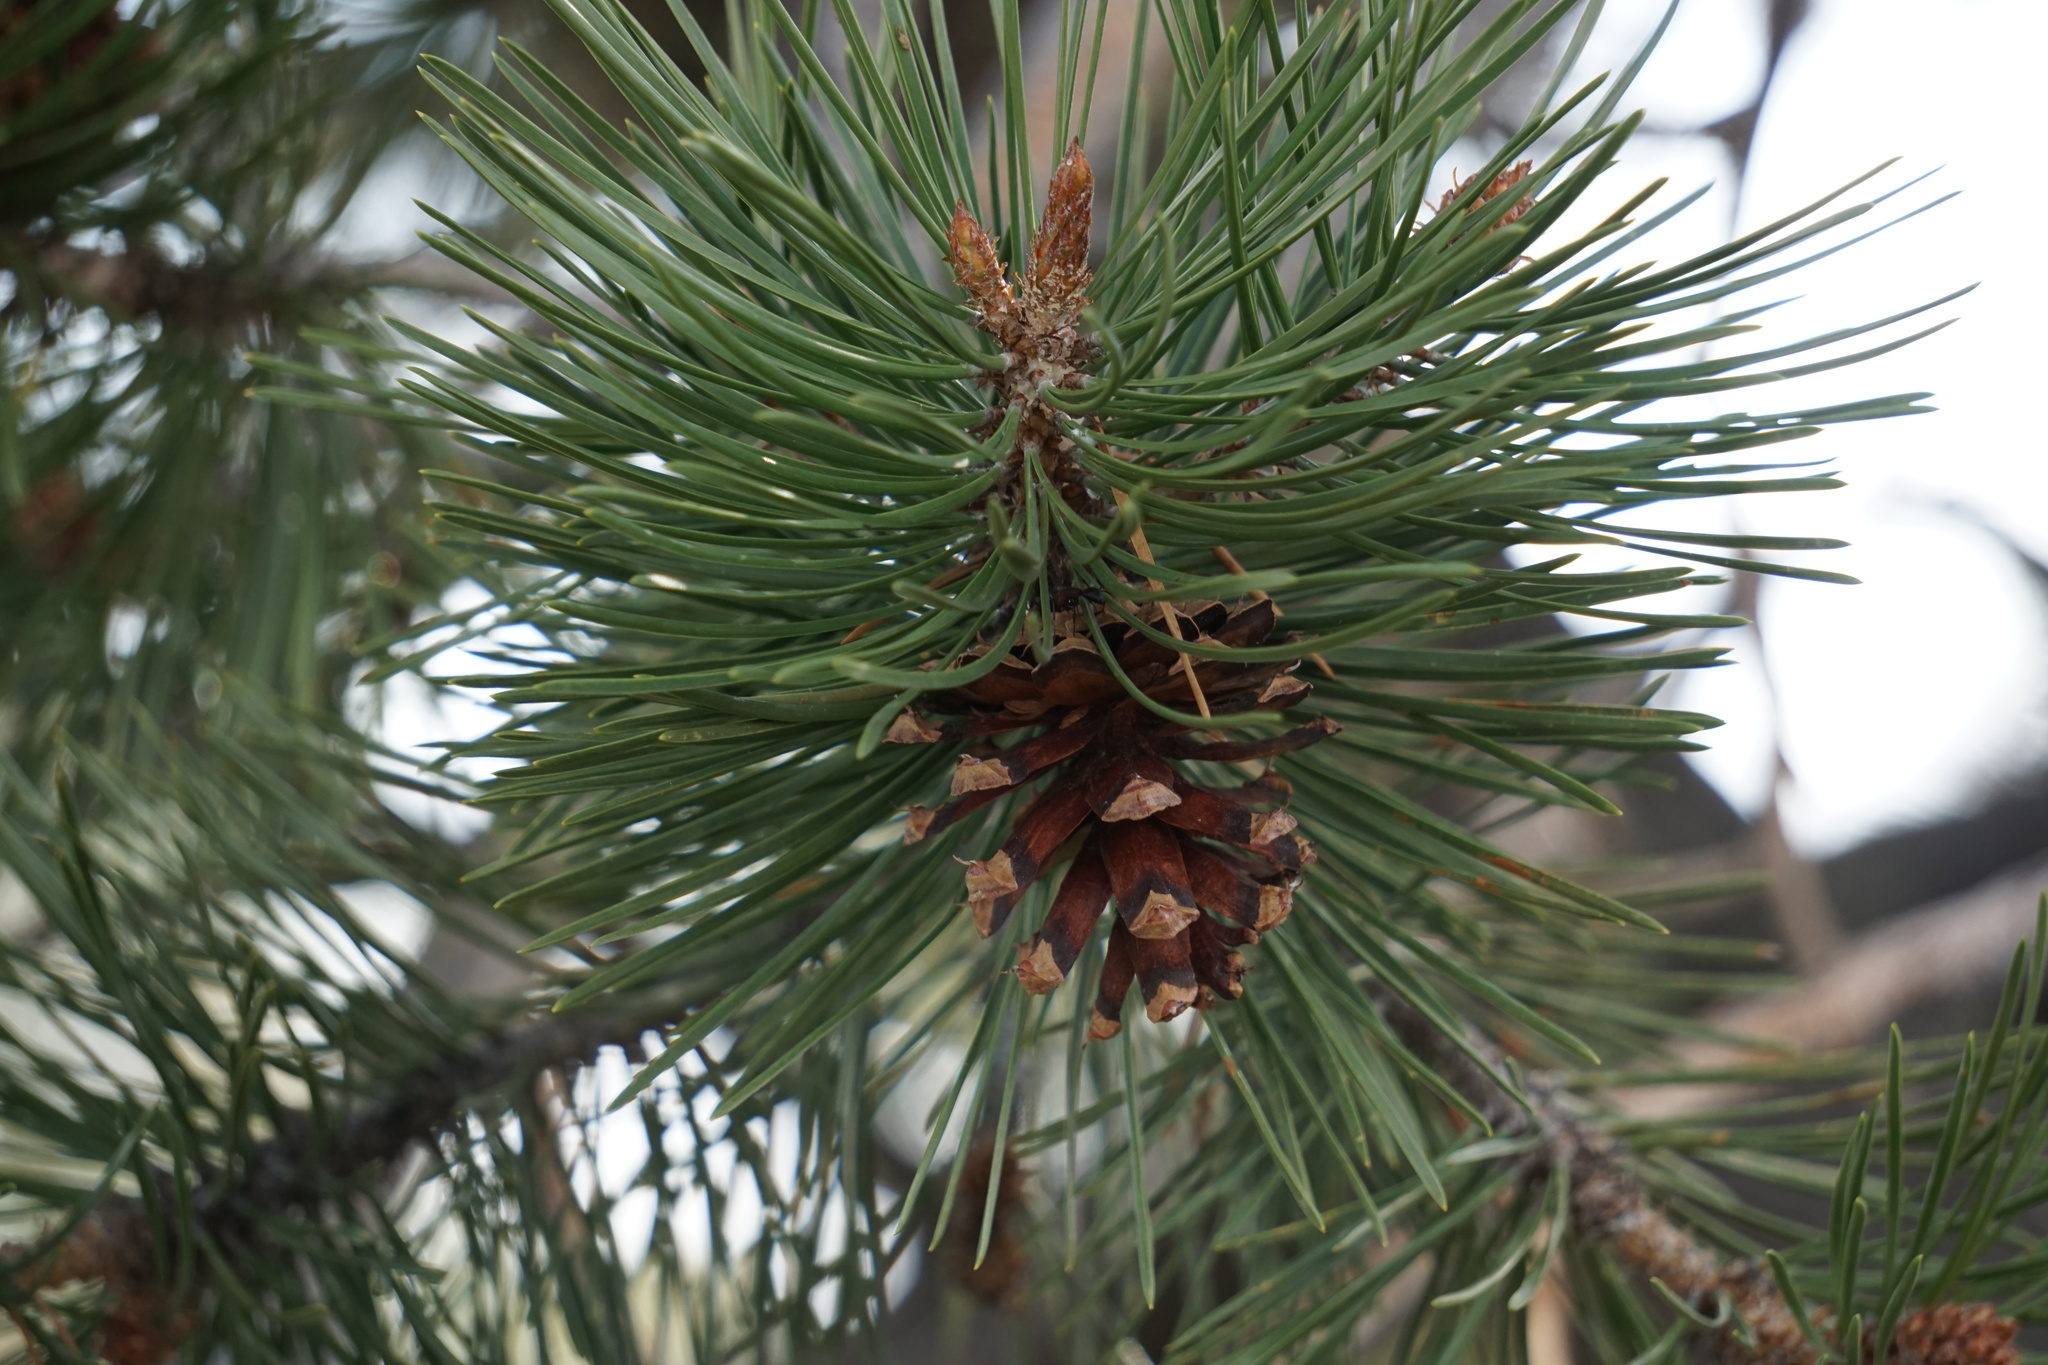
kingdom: Plantae
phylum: Tracheophyta
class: Pinopsida
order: Pinales
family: Pinaceae
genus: Pinus
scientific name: Pinus contorta
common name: Lodgepole pine
